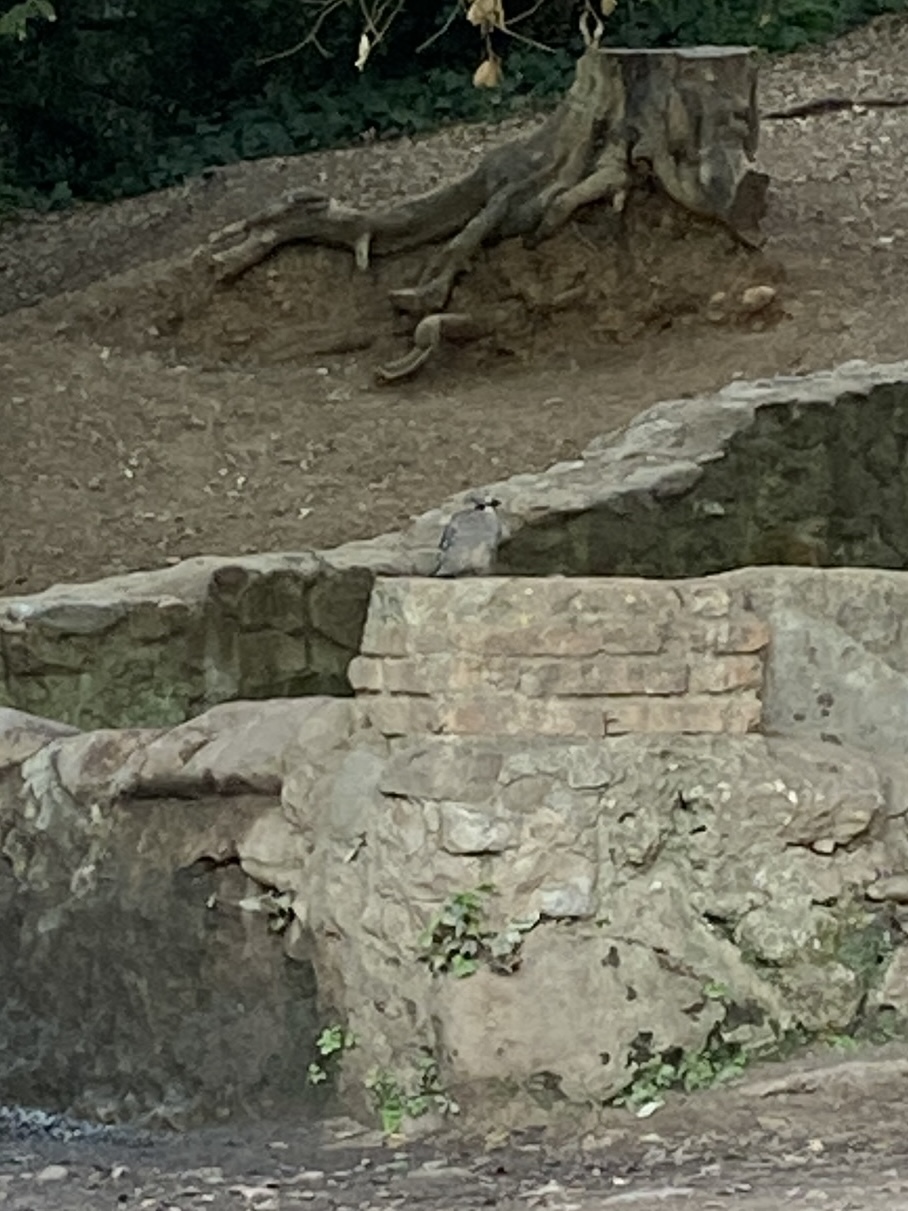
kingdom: Animalia
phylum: Chordata
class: Aves
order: Passeriformes
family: Corvidae
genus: Garrulus
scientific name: Garrulus glandarius
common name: Eurasian jay
